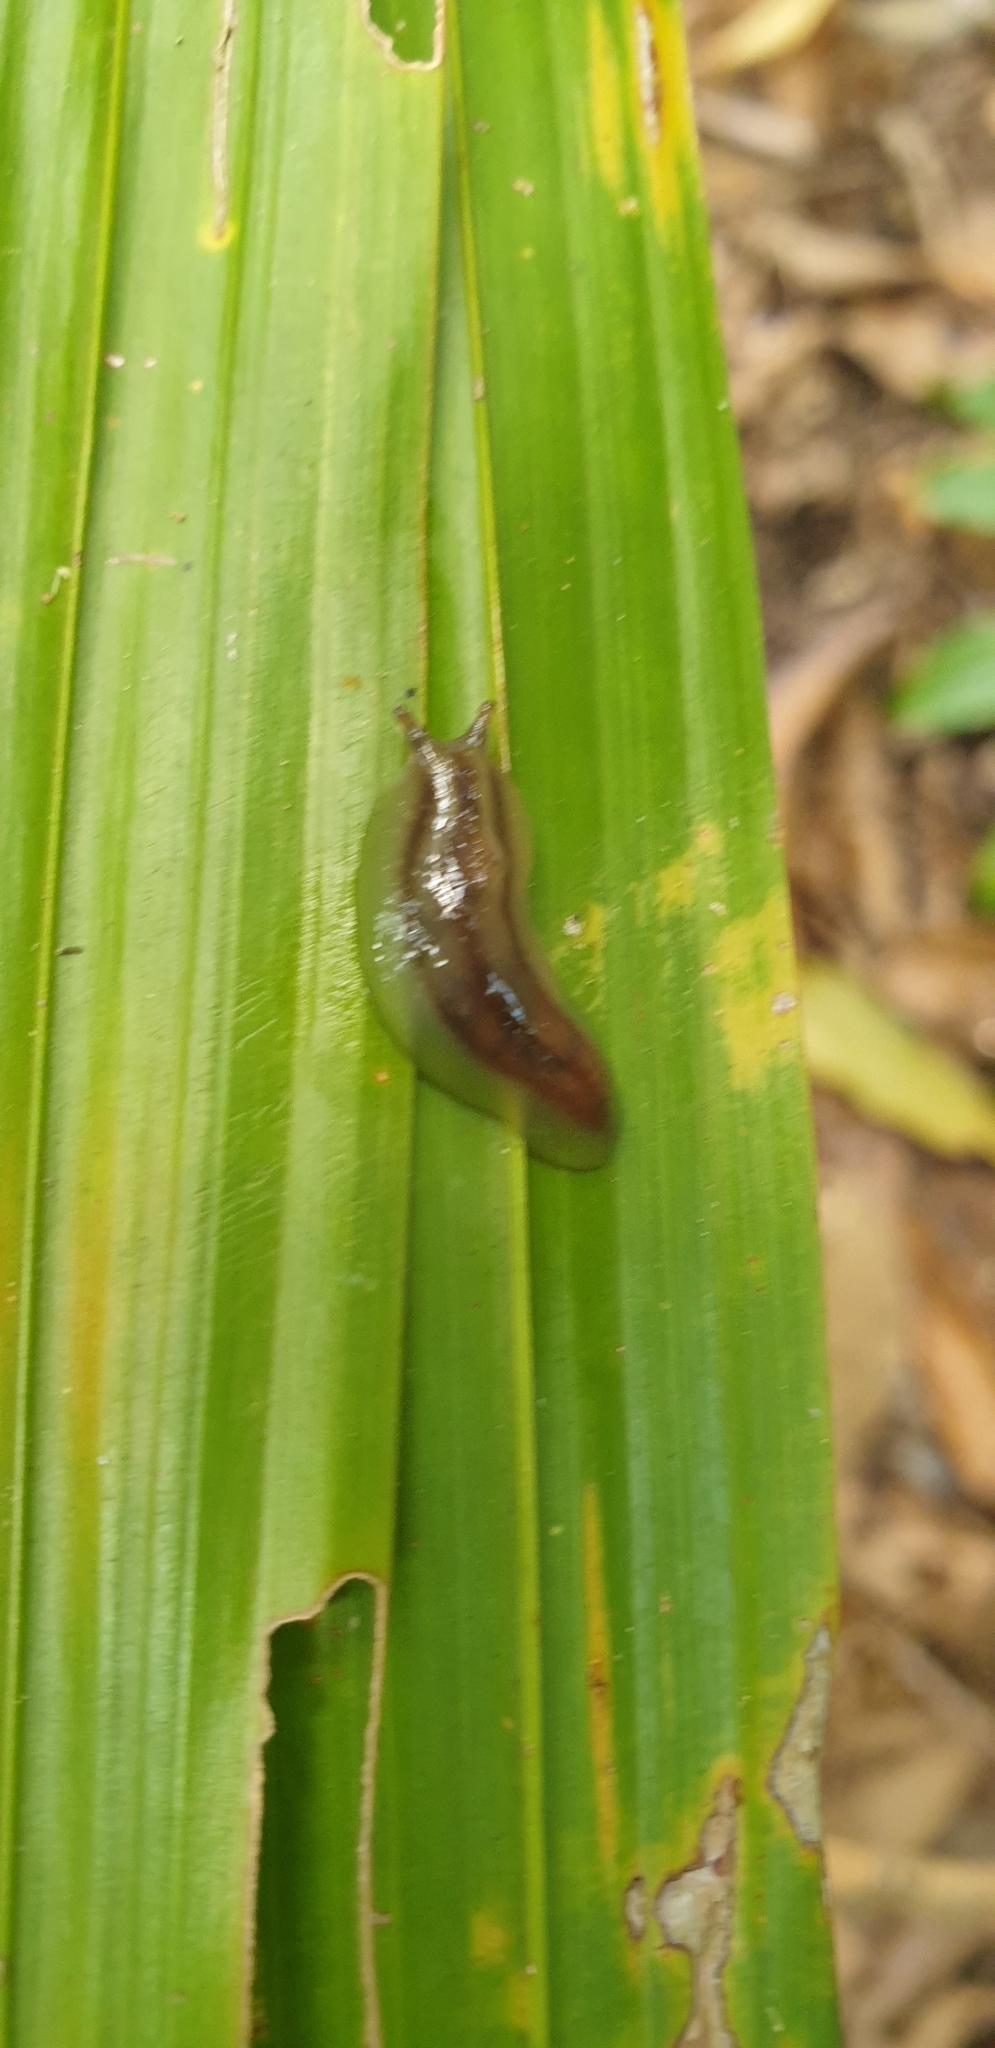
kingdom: Animalia
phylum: Mollusca
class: Gastropoda
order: Stylommatophora
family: Athoracophoridae
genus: Triboniophorus
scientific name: Triboniophorus graeffei
